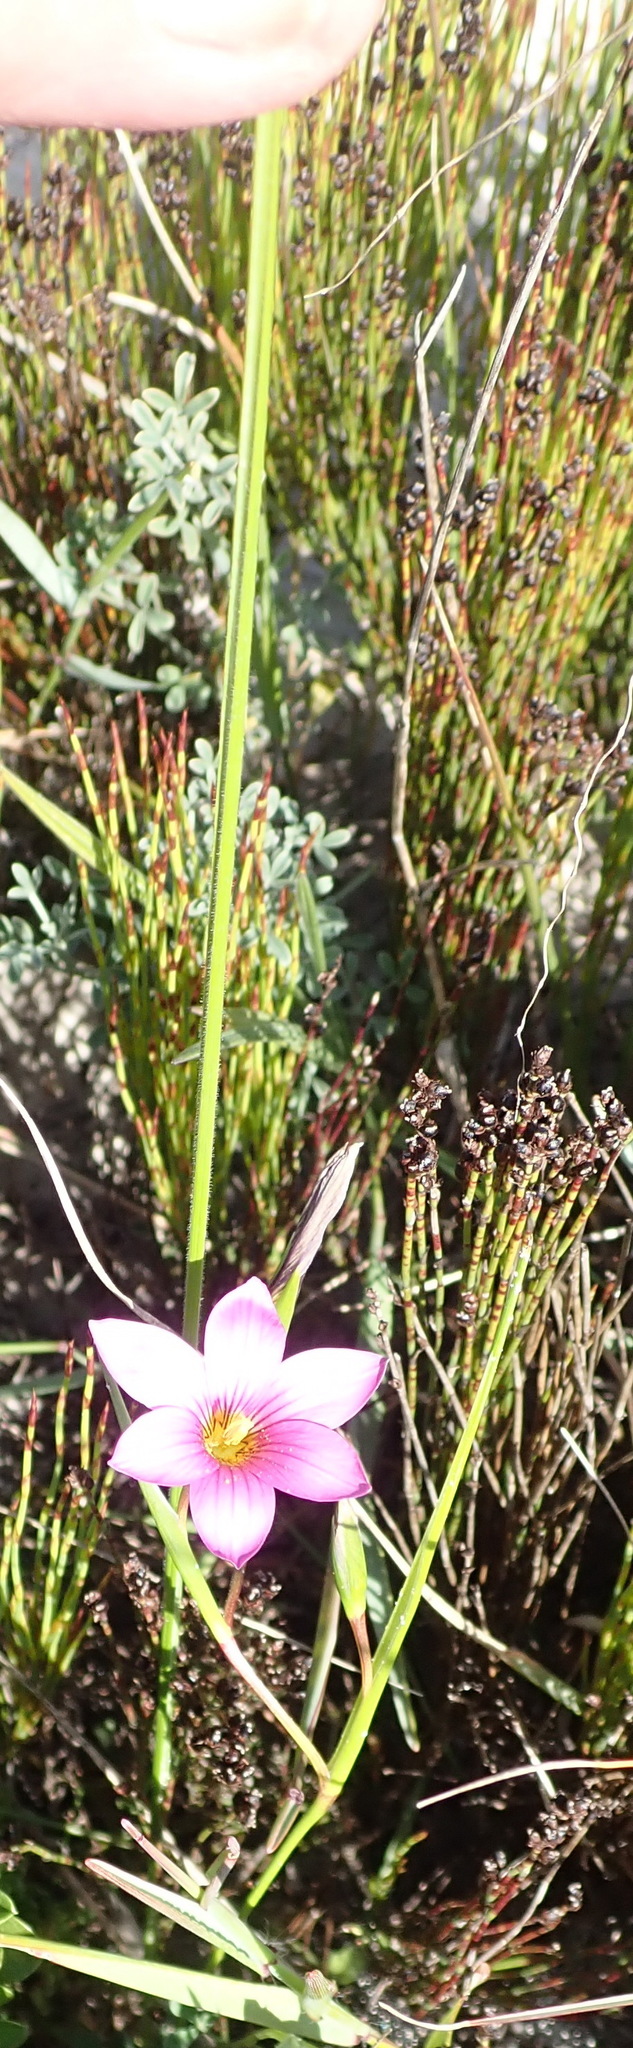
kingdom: Plantae
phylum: Tracheophyta
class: Liliopsida
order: Asparagales
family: Iridaceae
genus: Romulea
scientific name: Romulea dichotoma
